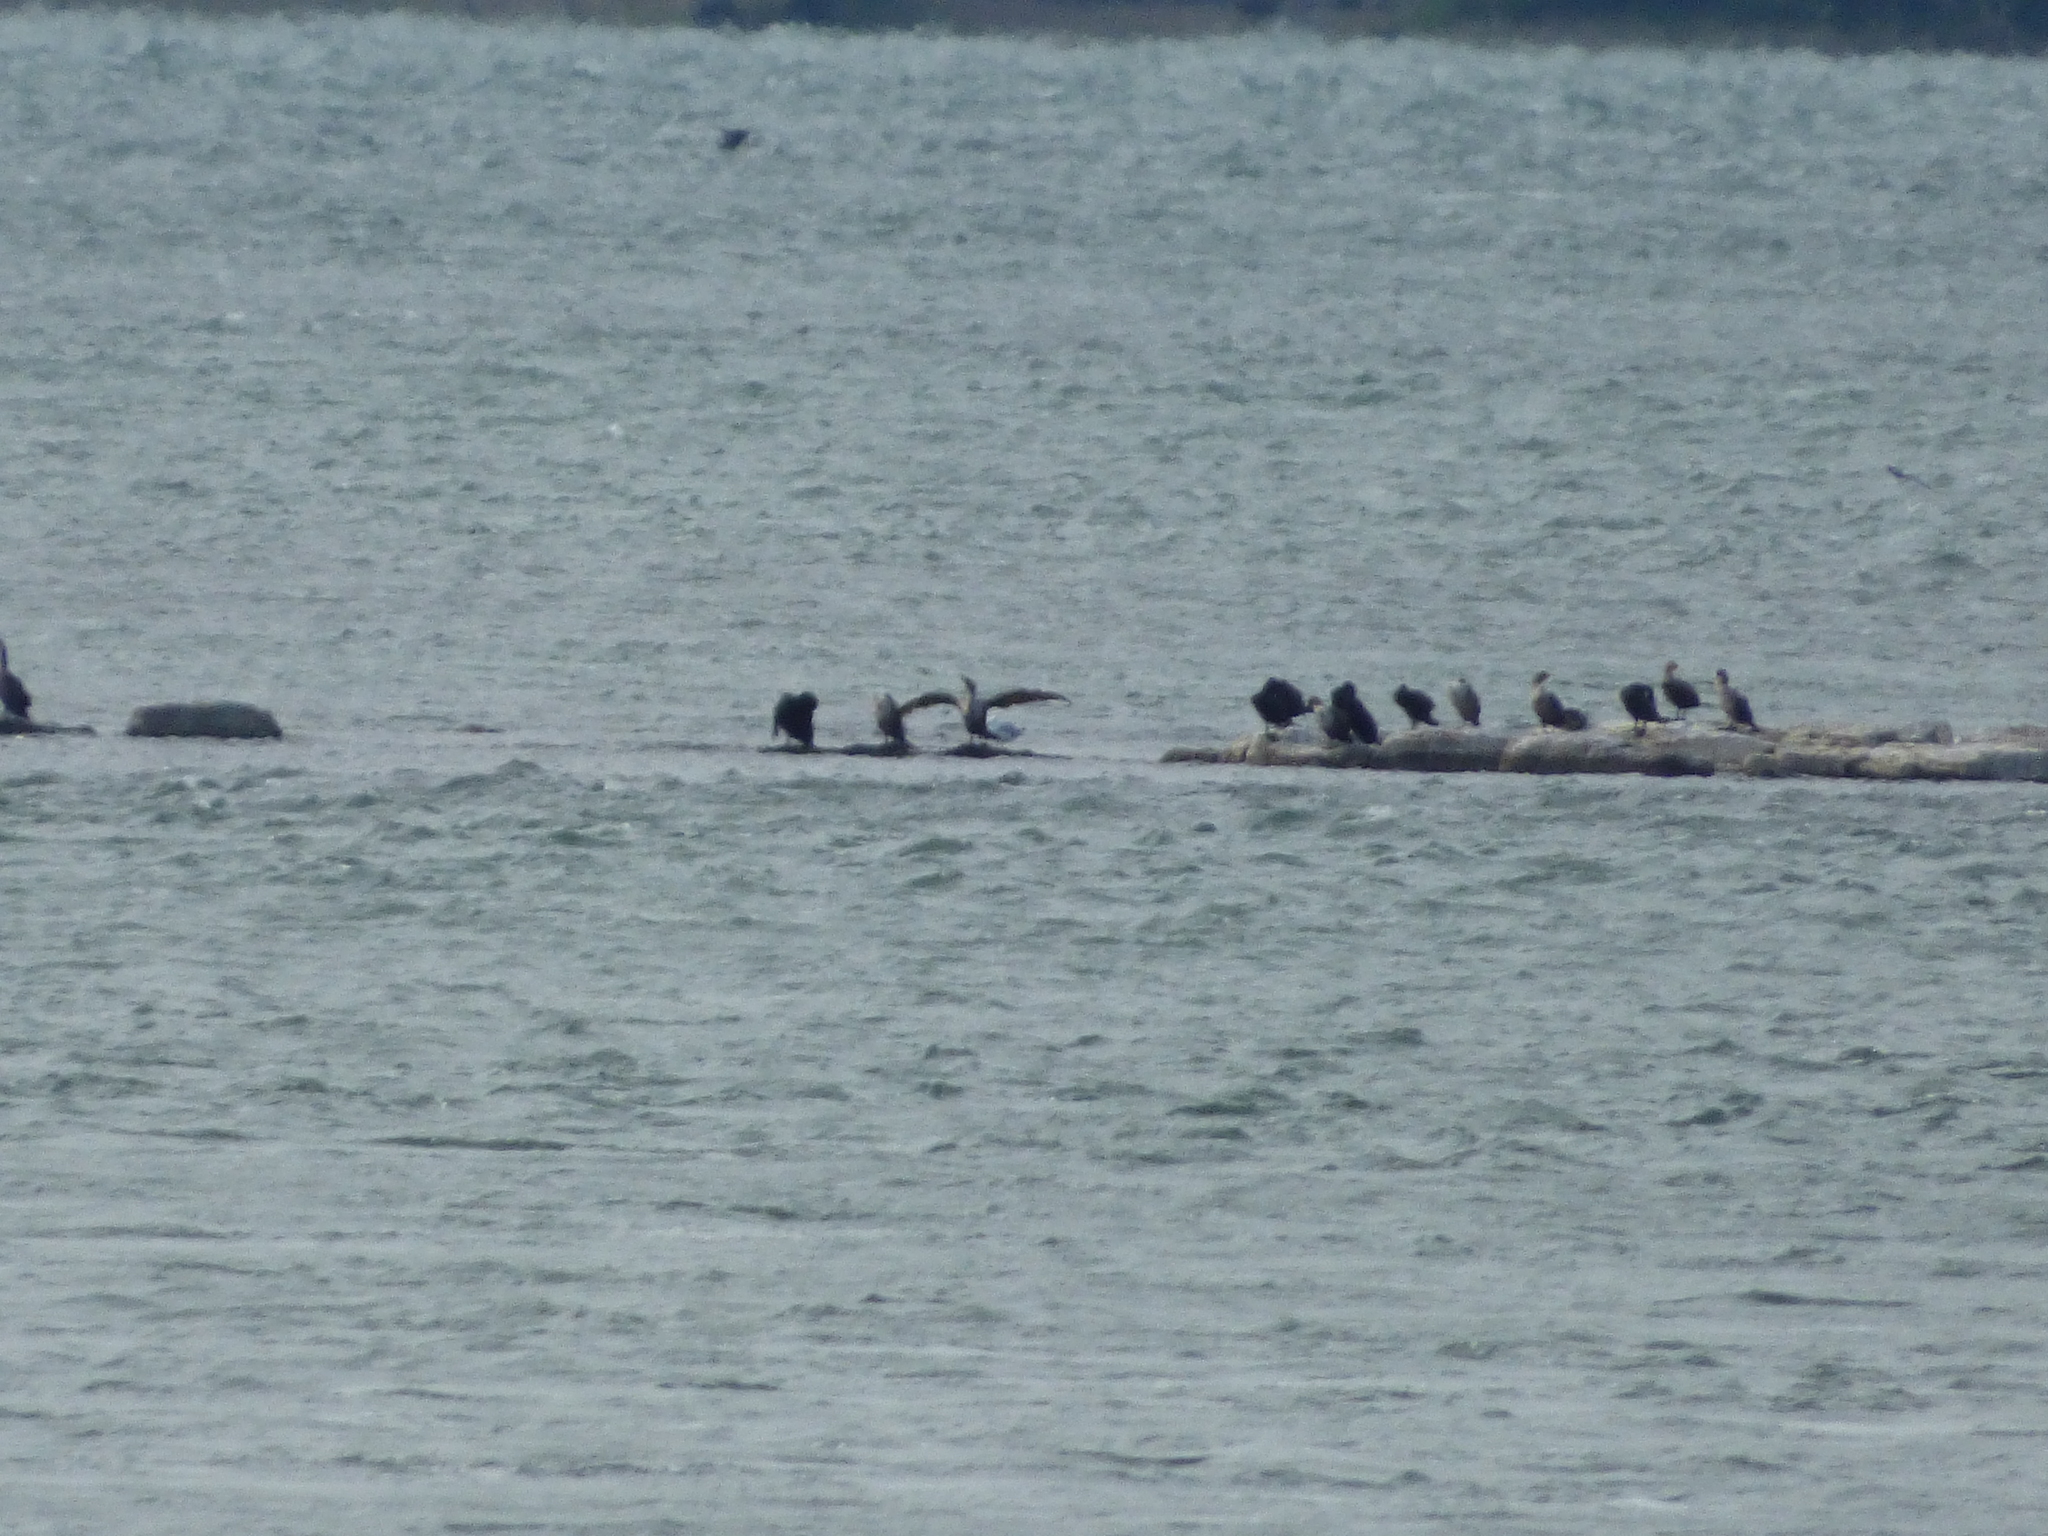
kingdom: Animalia
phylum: Chordata
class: Aves
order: Suliformes
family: Phalacrocoracidae
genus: Phalacrocorax
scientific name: Phalacrocorax auritus
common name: Double-crested cormorant
